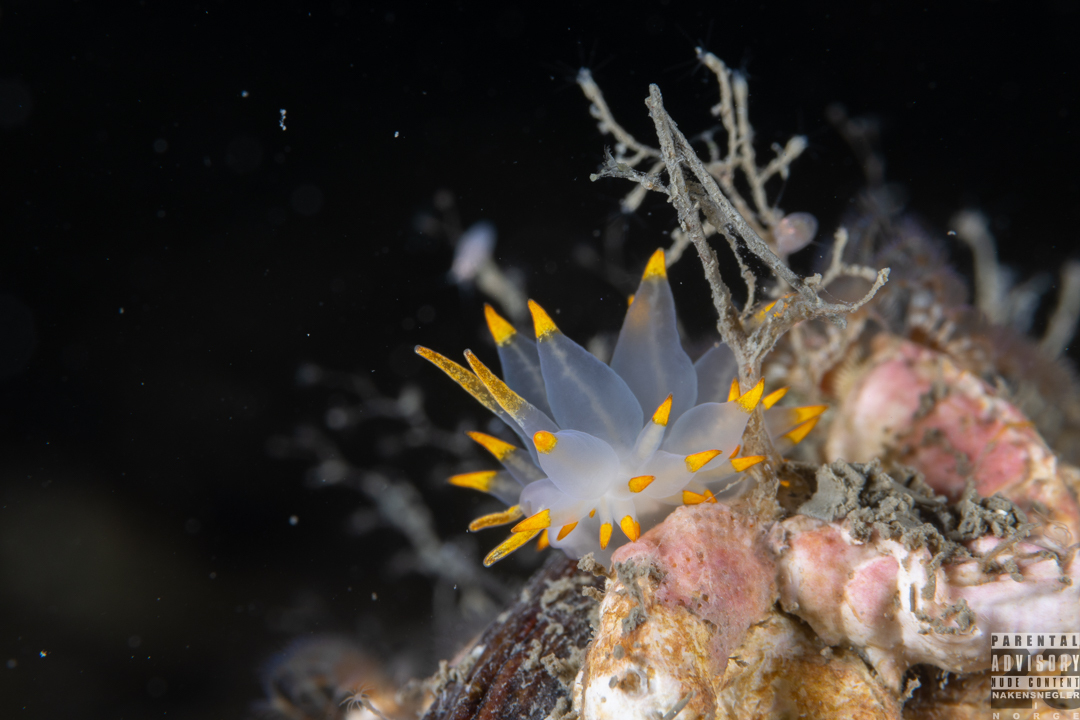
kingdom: Animalia
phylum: Mollusca
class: Gastropoda
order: Nudibranchia
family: Eubranchidae
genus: Amphorina
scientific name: Amphorina farrani
